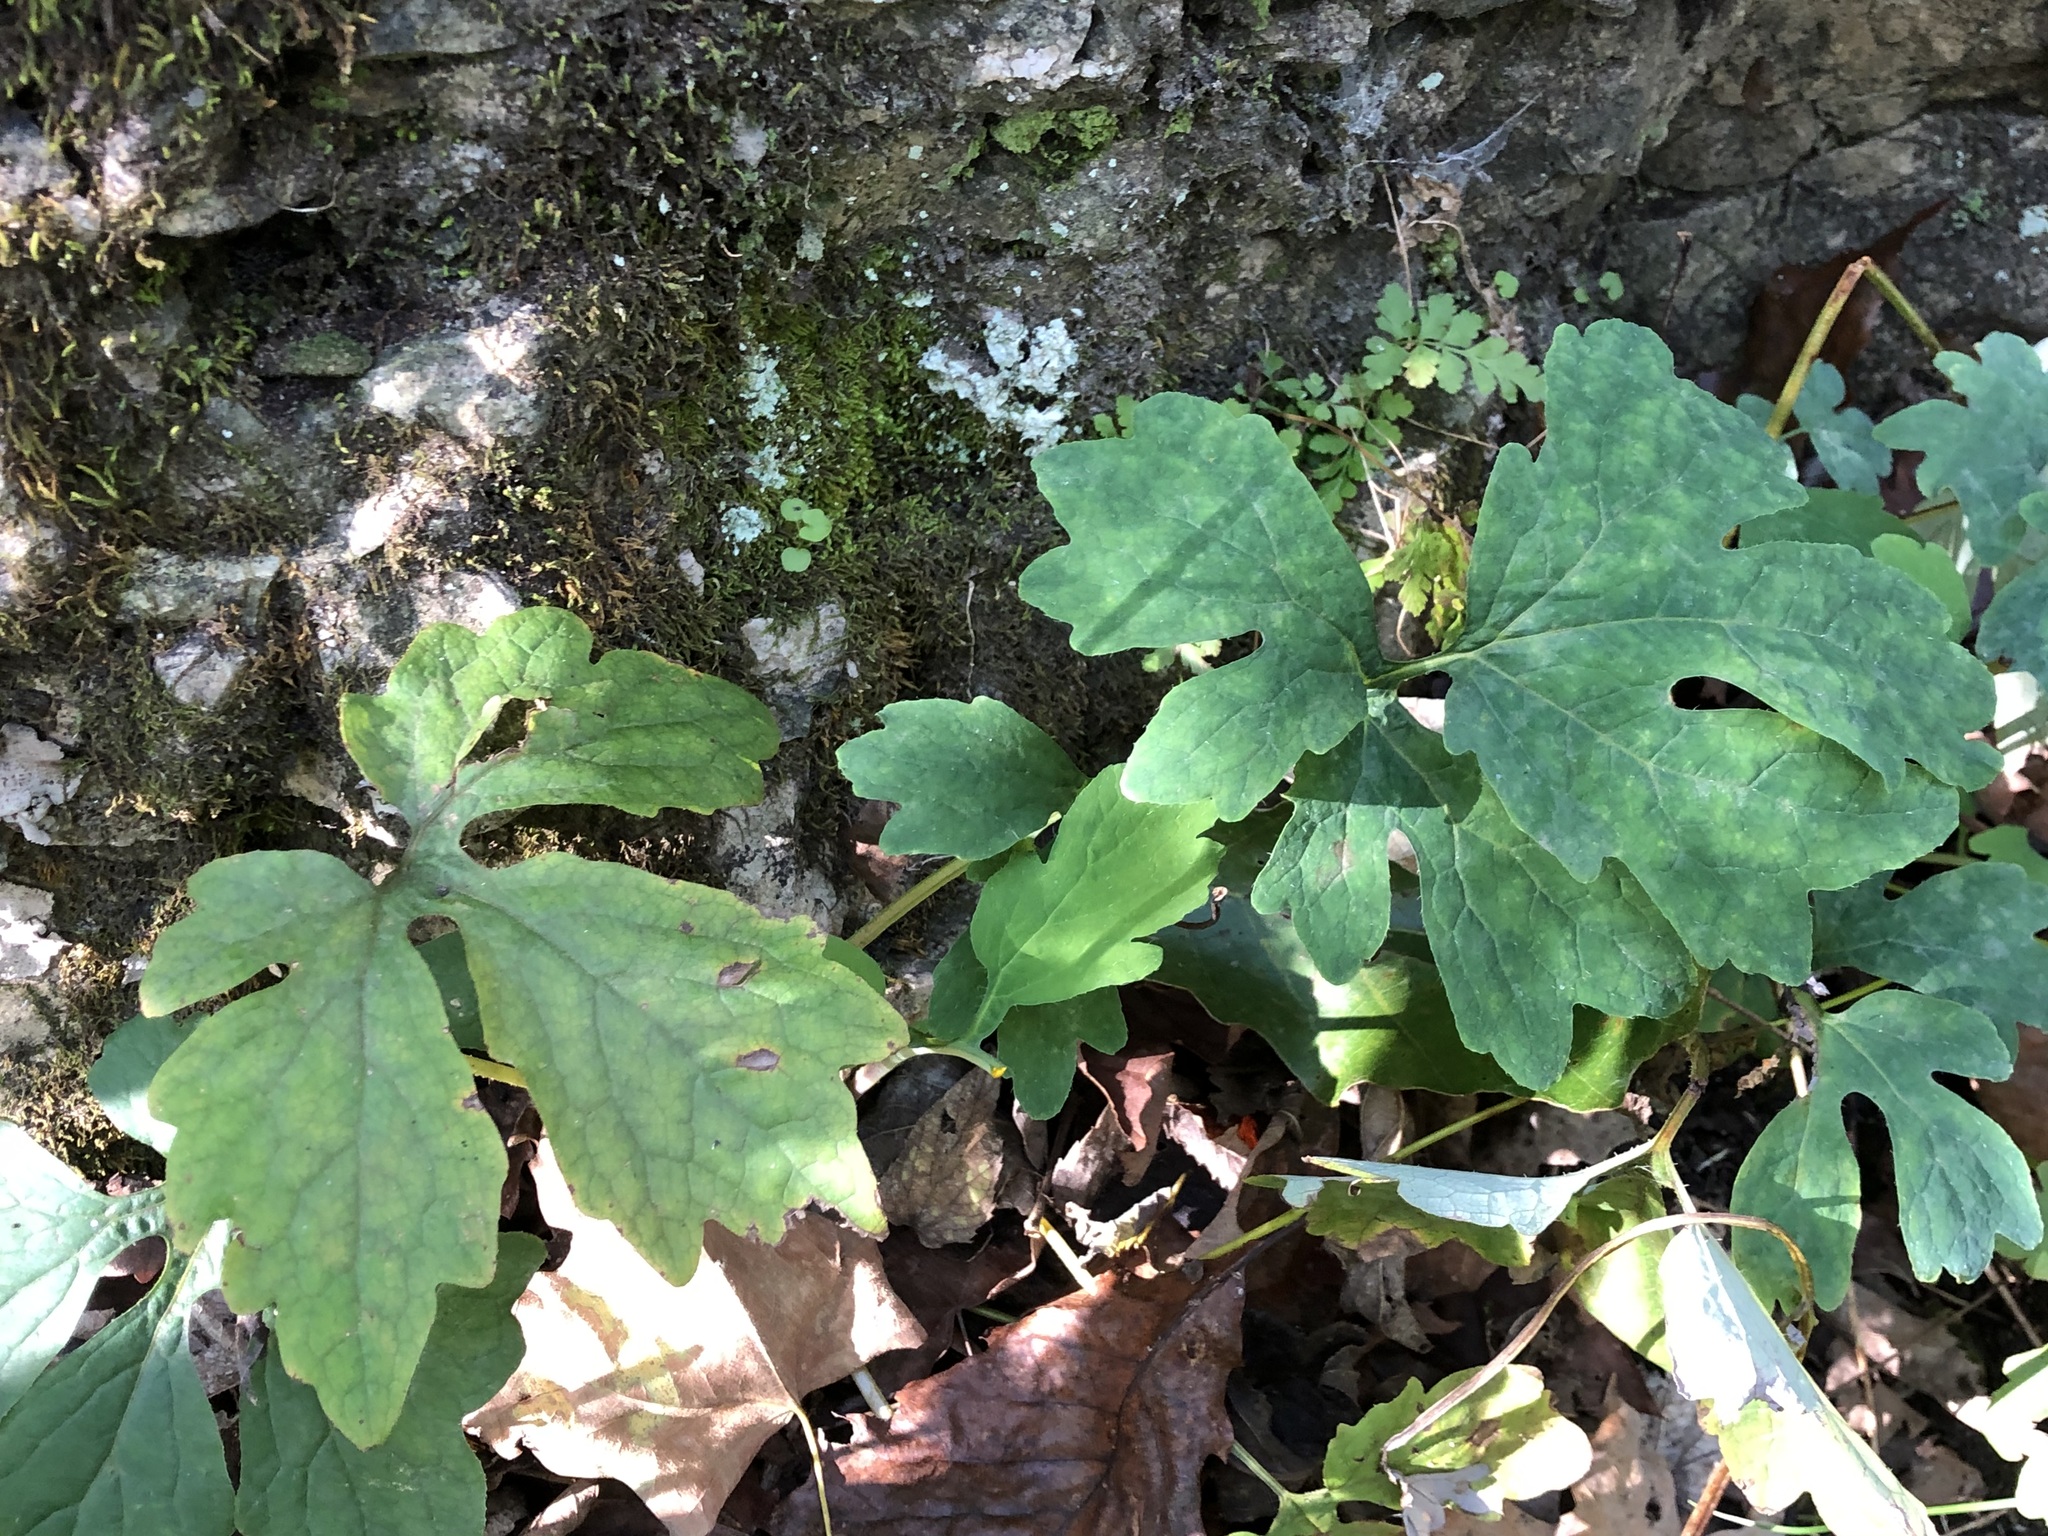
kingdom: Plantae
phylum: Tracheophyta
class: Magnoliopsida
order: Ranunculales
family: Papaveraceae
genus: Stylophorum
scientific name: Stylophorum diphyllum
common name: Celandine poppy
